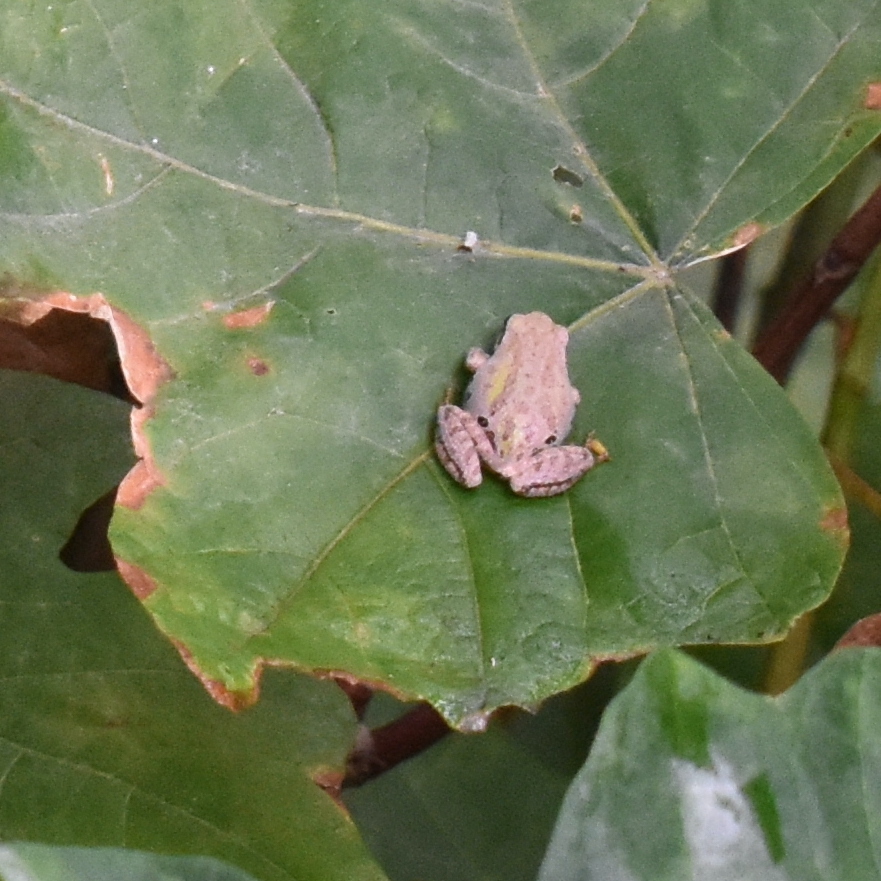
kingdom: Animalia
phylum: Chordata
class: Amphibia
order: Anura
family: Hylidae
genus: Pseudacris
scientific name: Pseudacris regilla
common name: Pacific chorus frog
